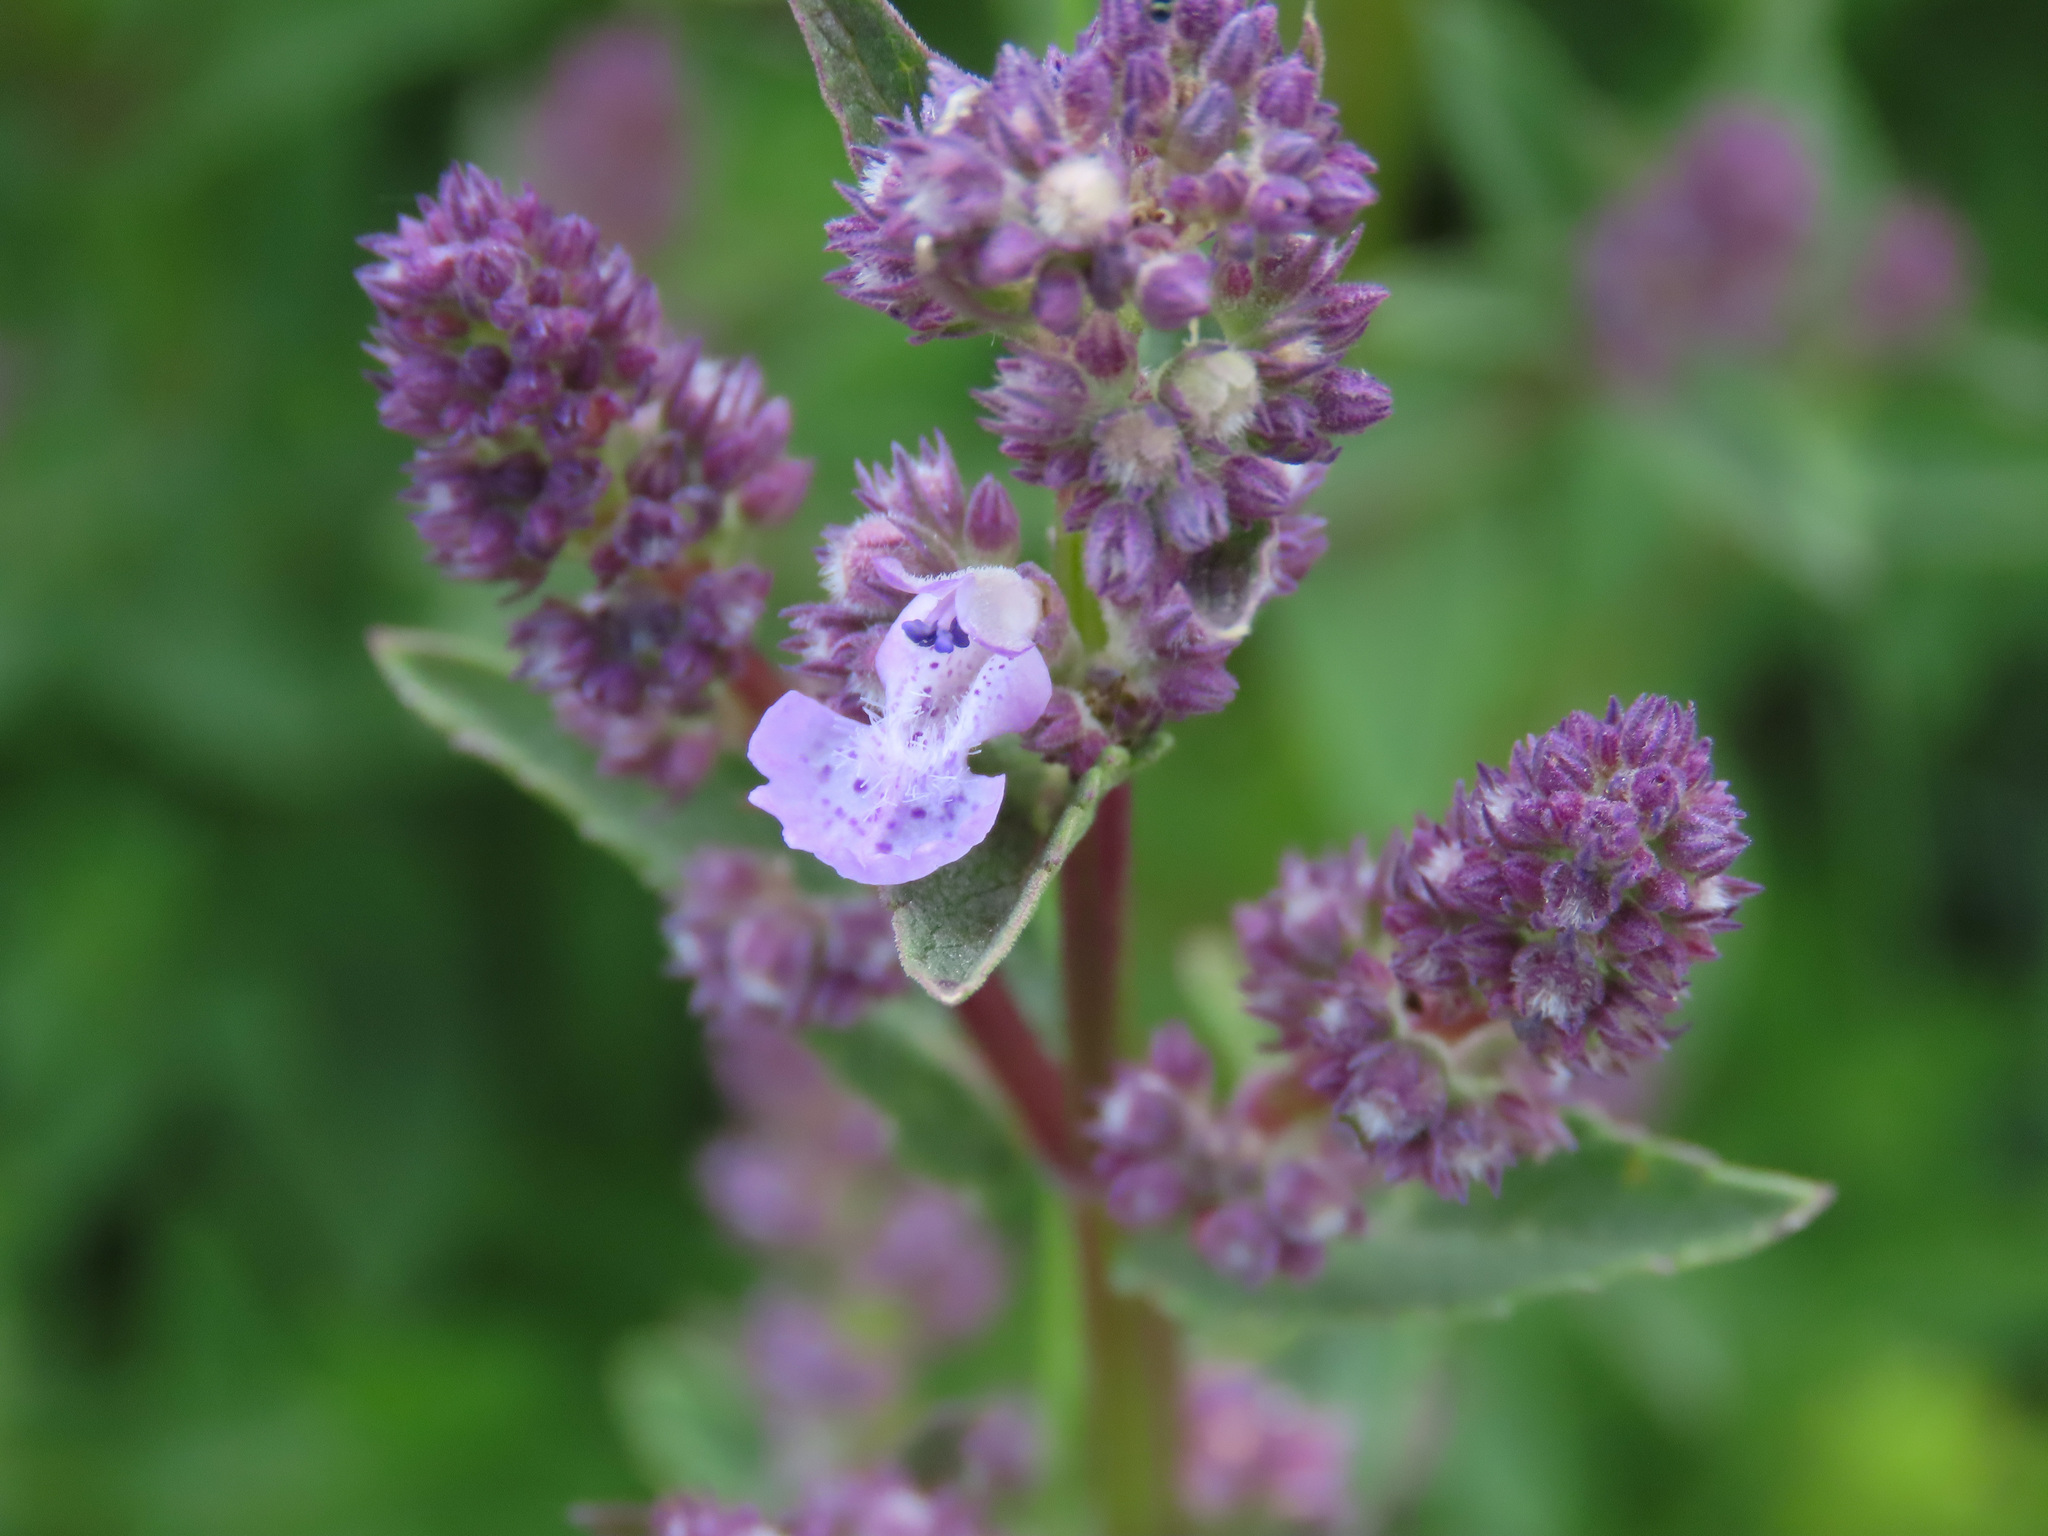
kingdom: Plantae
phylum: Tracheophyta
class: Magnoliopsida
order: Lamiales
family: Lamiaceae
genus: Nepeta
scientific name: Nepeta nuda
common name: Hairless catmint
